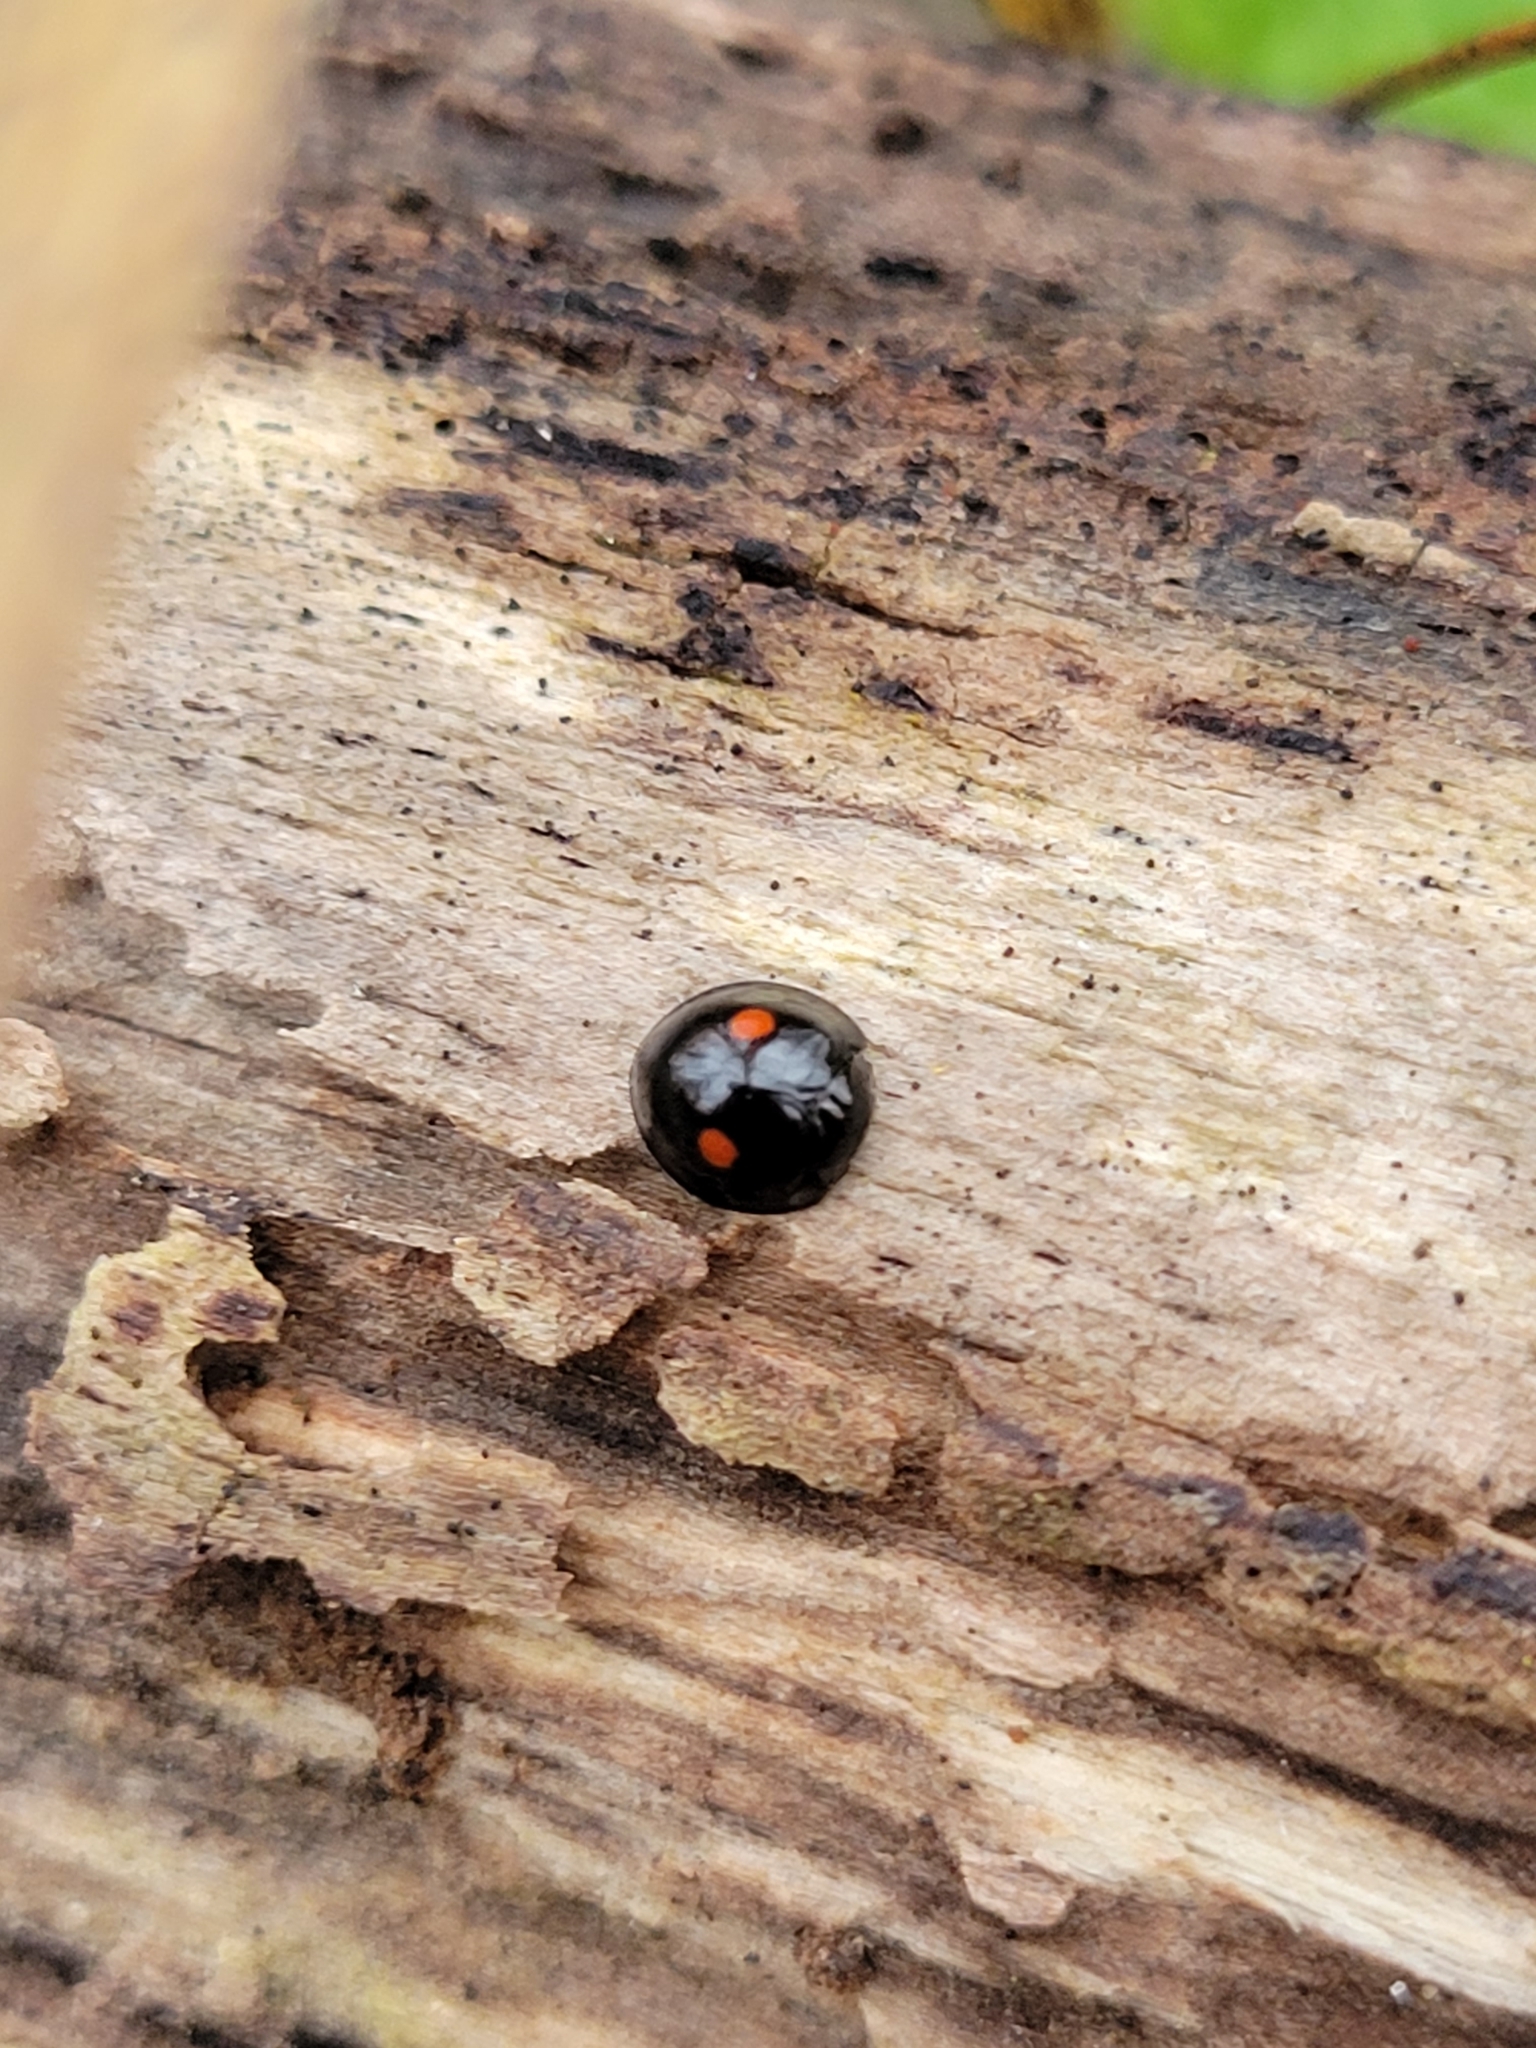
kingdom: Animalia
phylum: Arthropoda
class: Insecta
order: Coleoptera
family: Coccinellidae
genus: Chilocorus
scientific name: Chilocorus stigma
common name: Twicestabbed lady beetle
